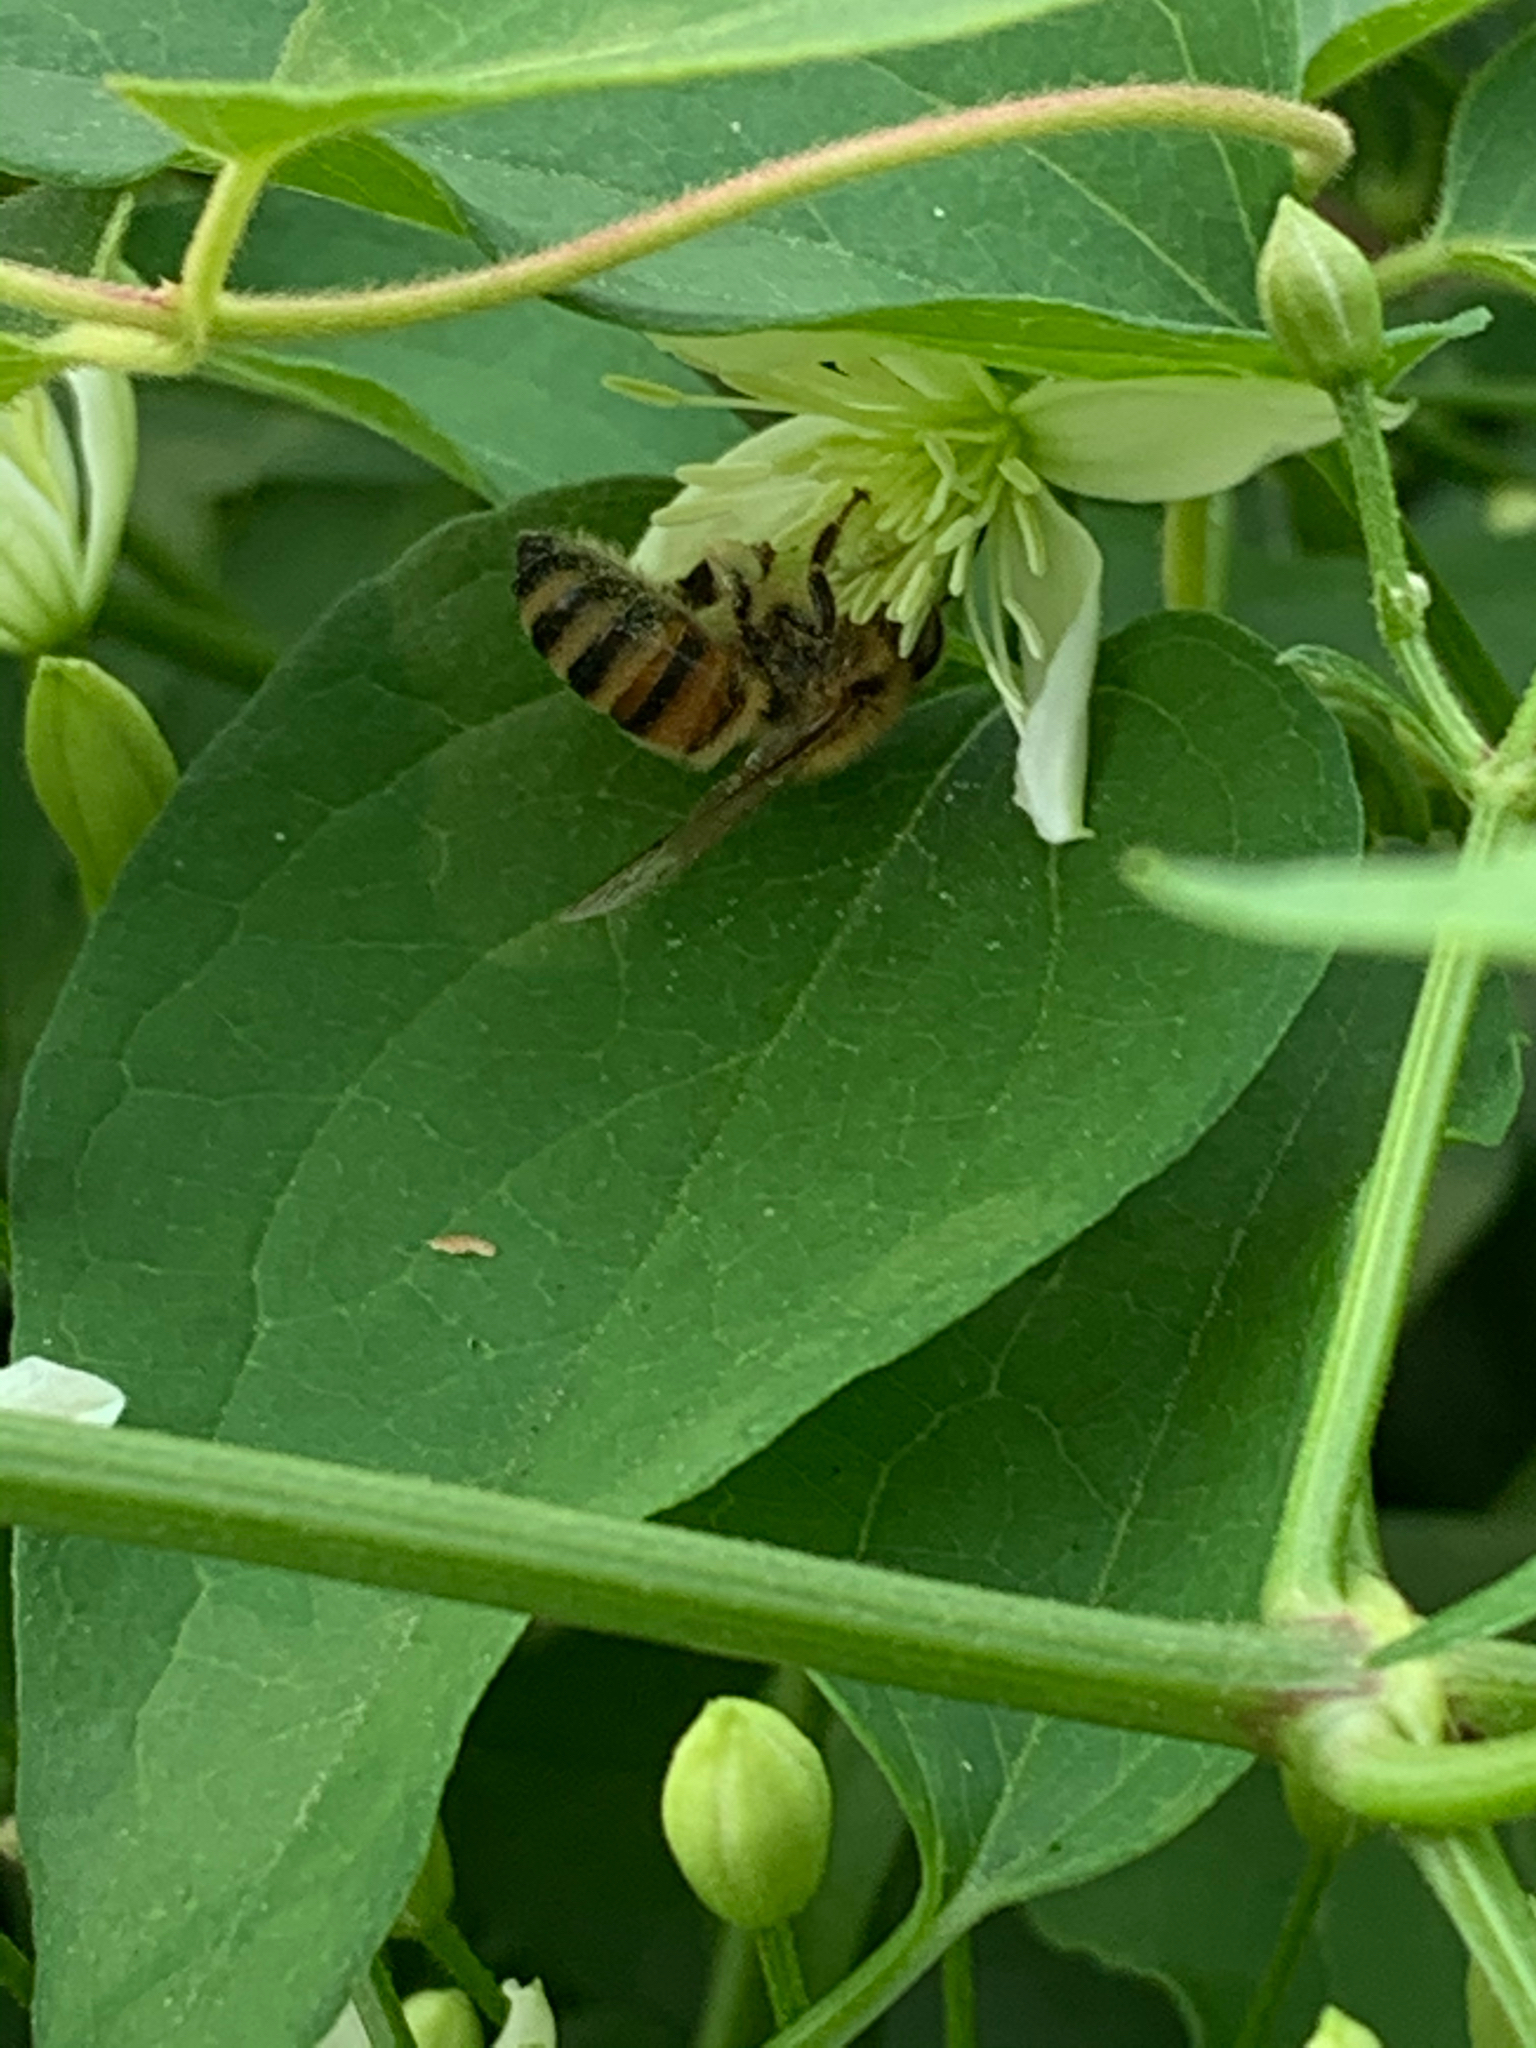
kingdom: Animalia
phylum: Arthropoda
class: Insecta
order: Hymenoptera
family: Apidae
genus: Apis
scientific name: Apis mellifera
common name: Honey bee
